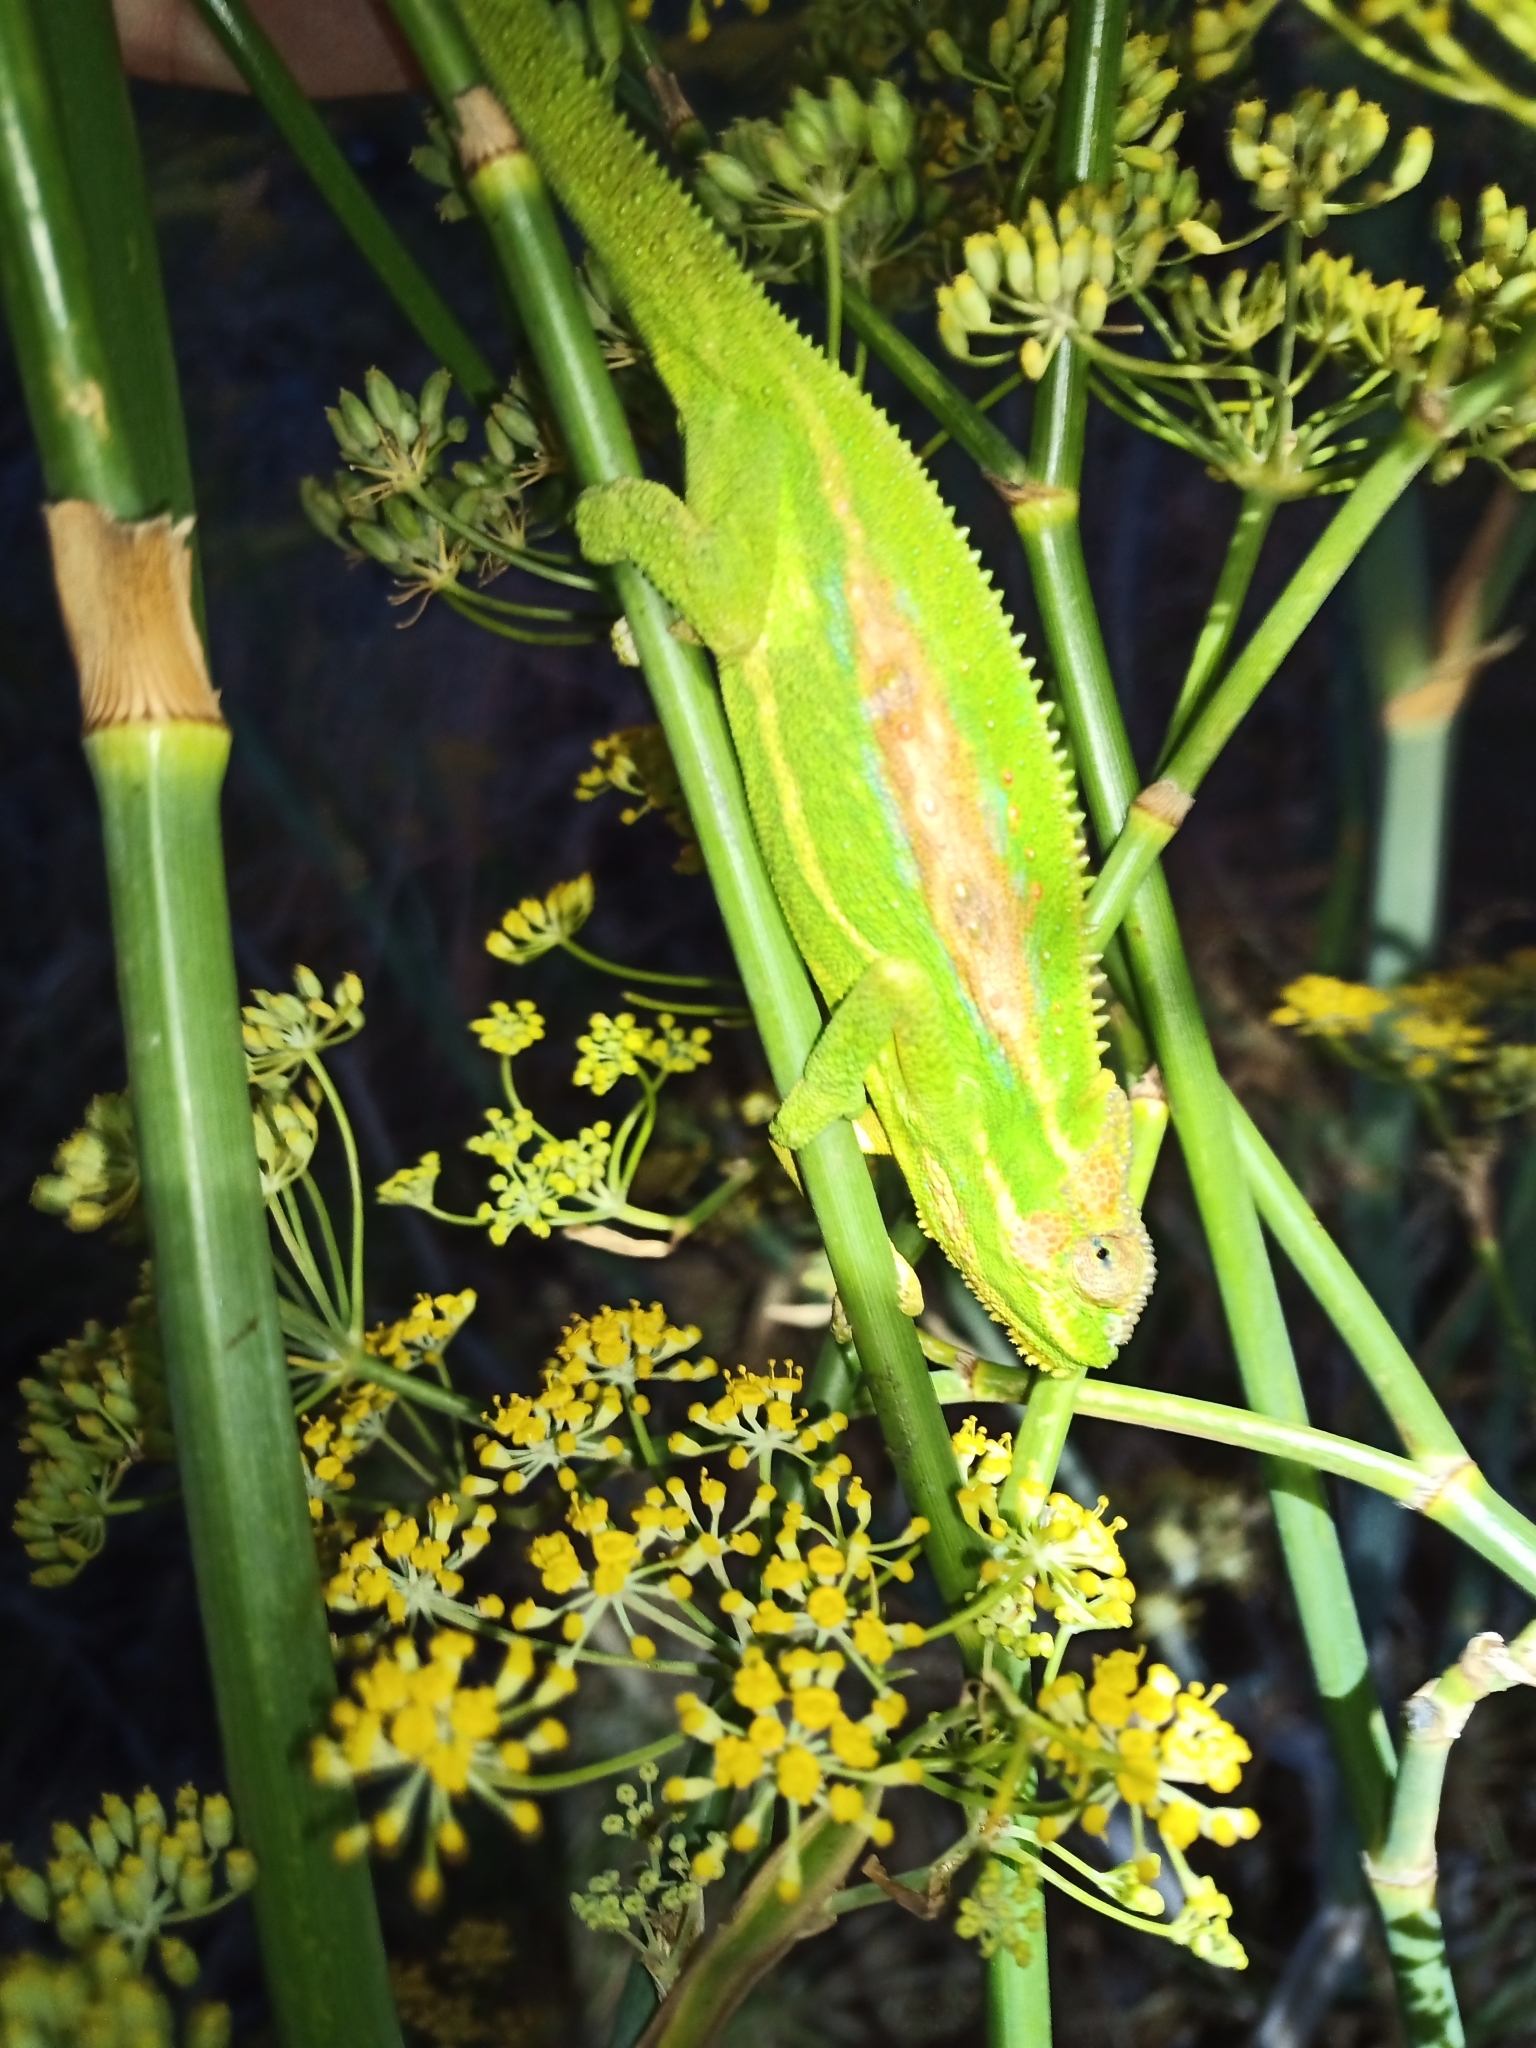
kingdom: Animalia
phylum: Chordata
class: Squamata
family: Chamaeleonidae
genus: Bradypodion
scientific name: Bradypodion pumilum
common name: Cape dwarf chameleon
